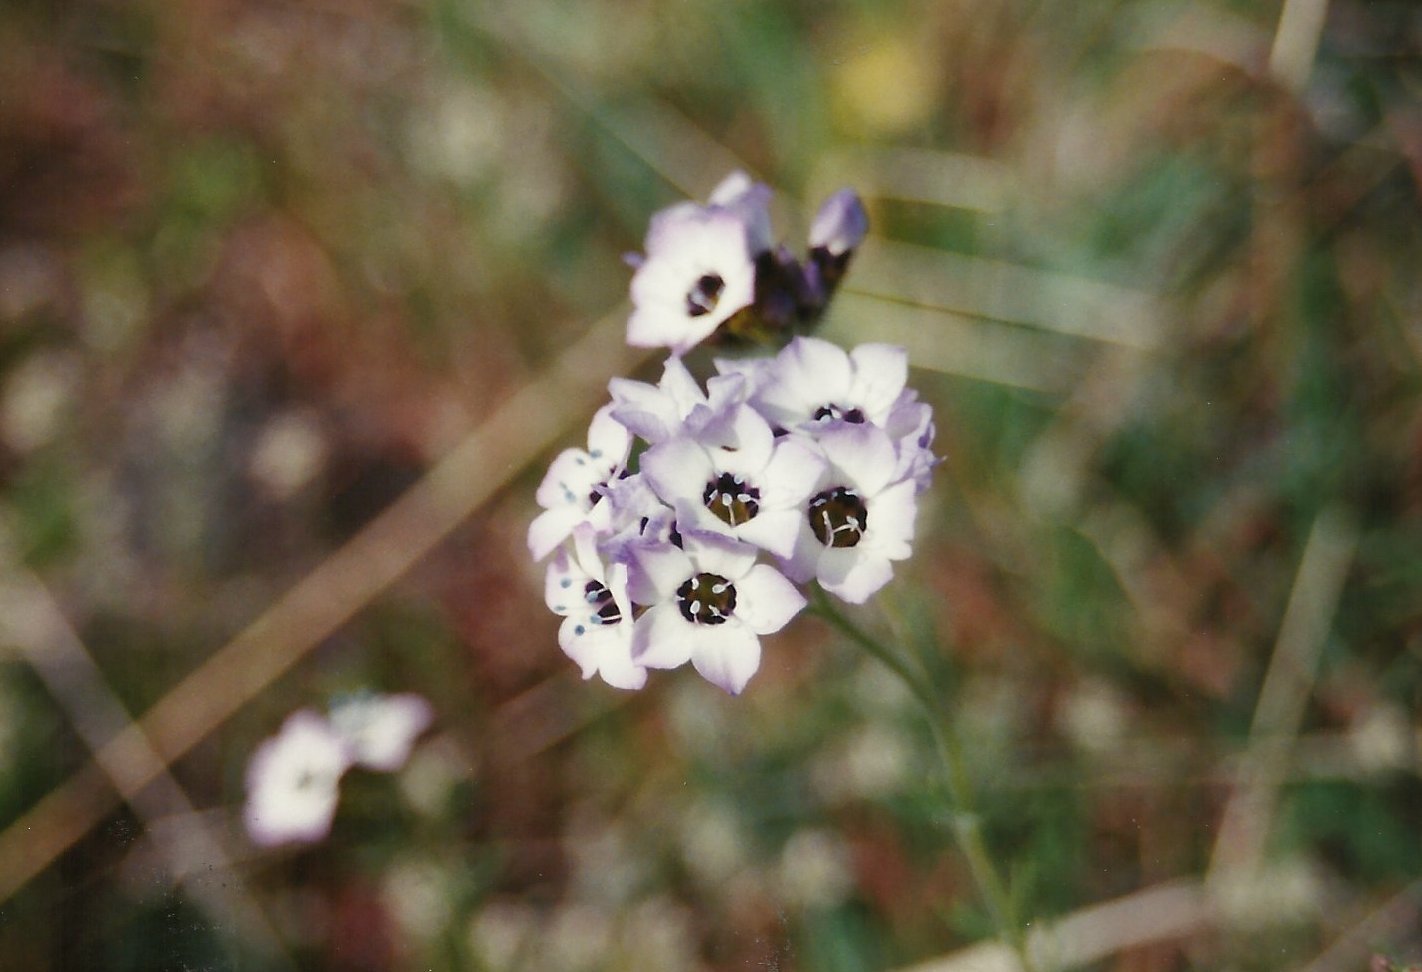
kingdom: Plantae
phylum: Tracheophyta
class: Magnoliopsida
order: Ericales
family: Polemoniaceae
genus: Gilia
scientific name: Gilia tricolor
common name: Bird's-eyes
